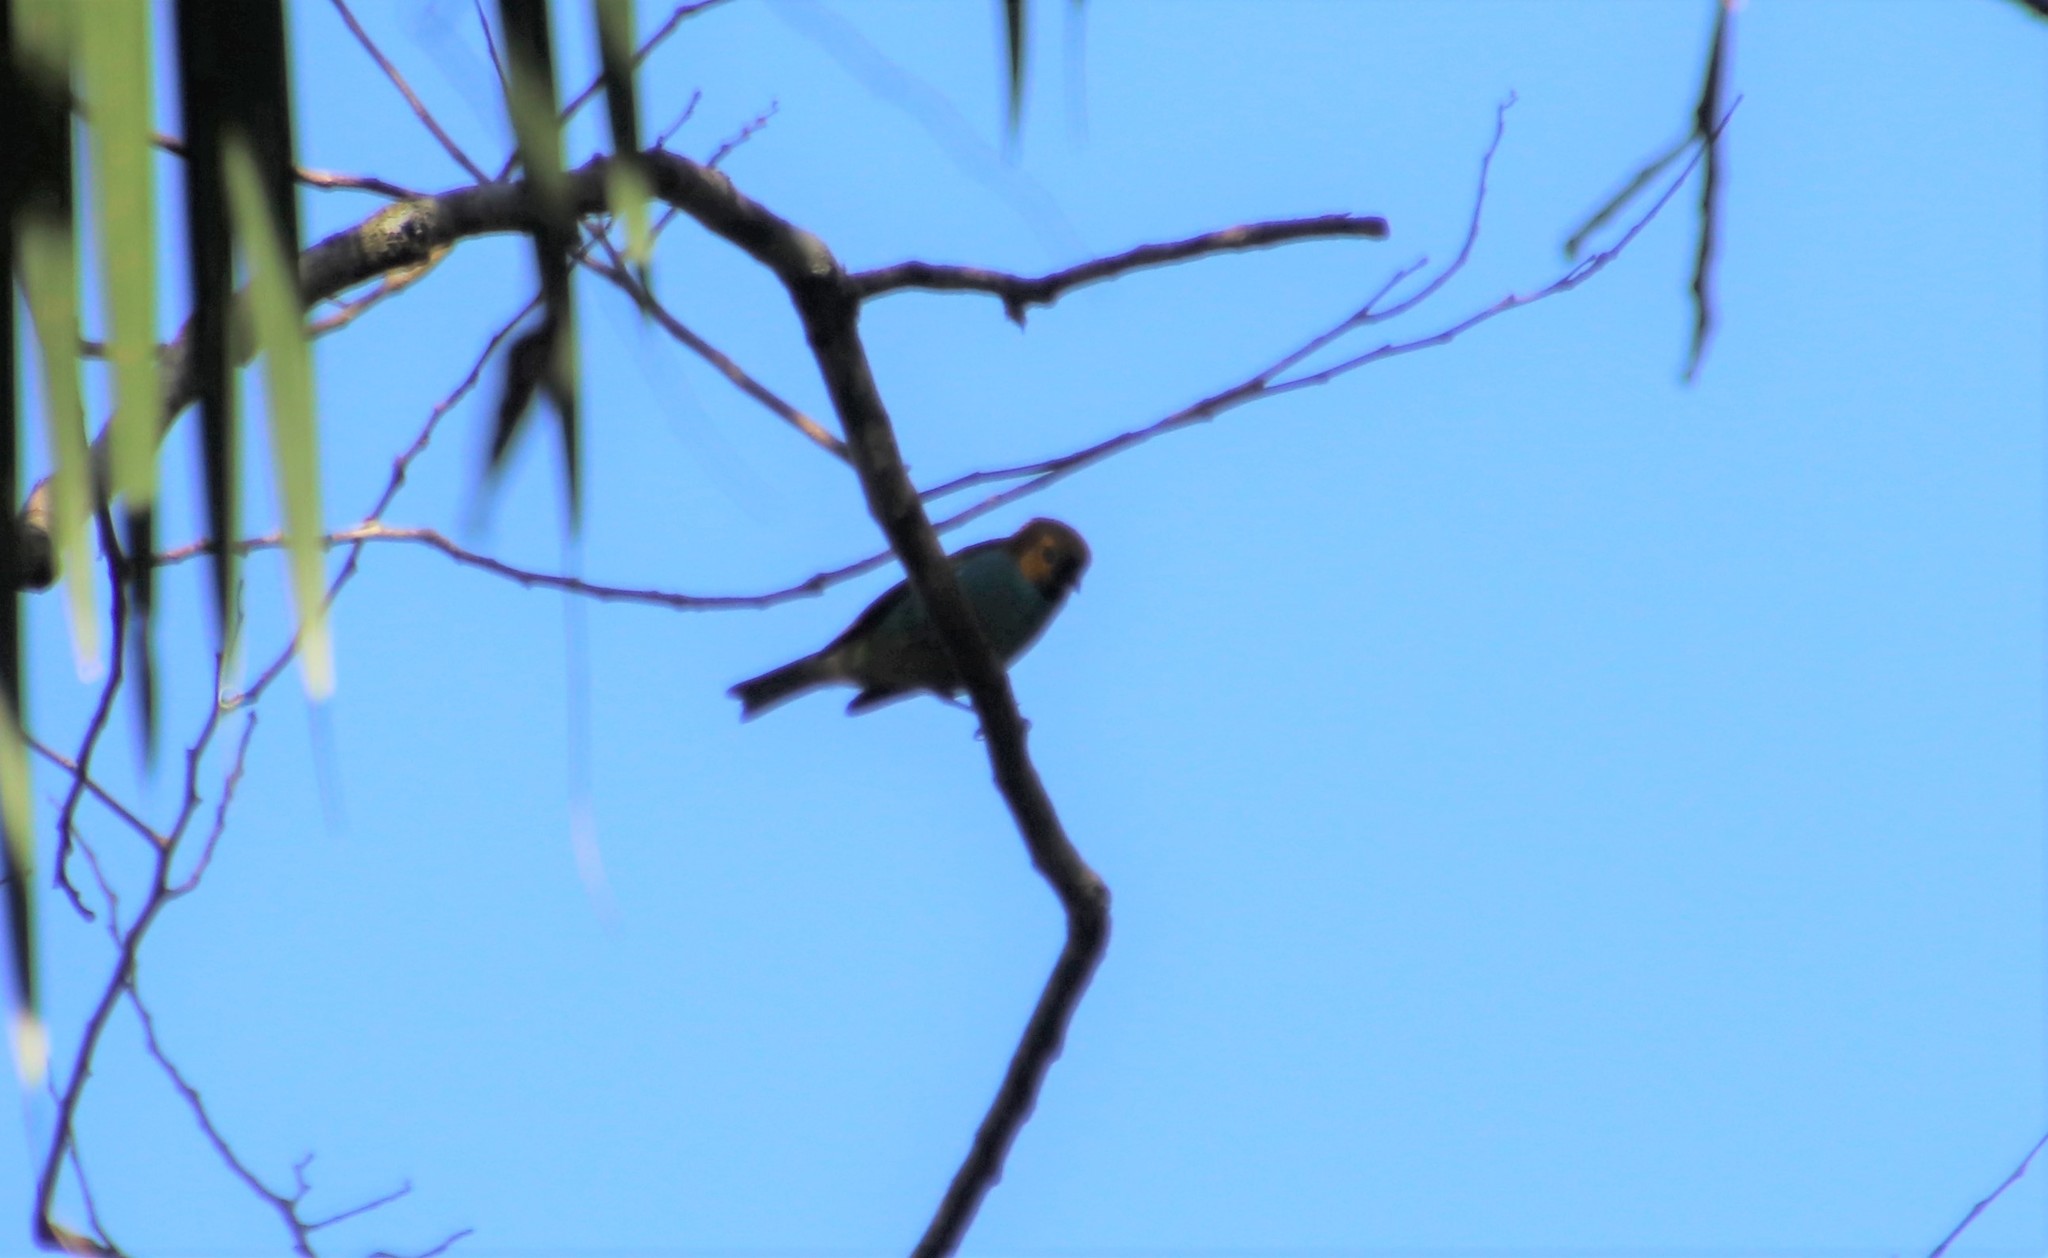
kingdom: Animalia
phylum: Chordata
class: Aves
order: Passeriformes
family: Thraupidae
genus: Tangara
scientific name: Tangara cyanoventris
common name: Gilt-edged tanager
